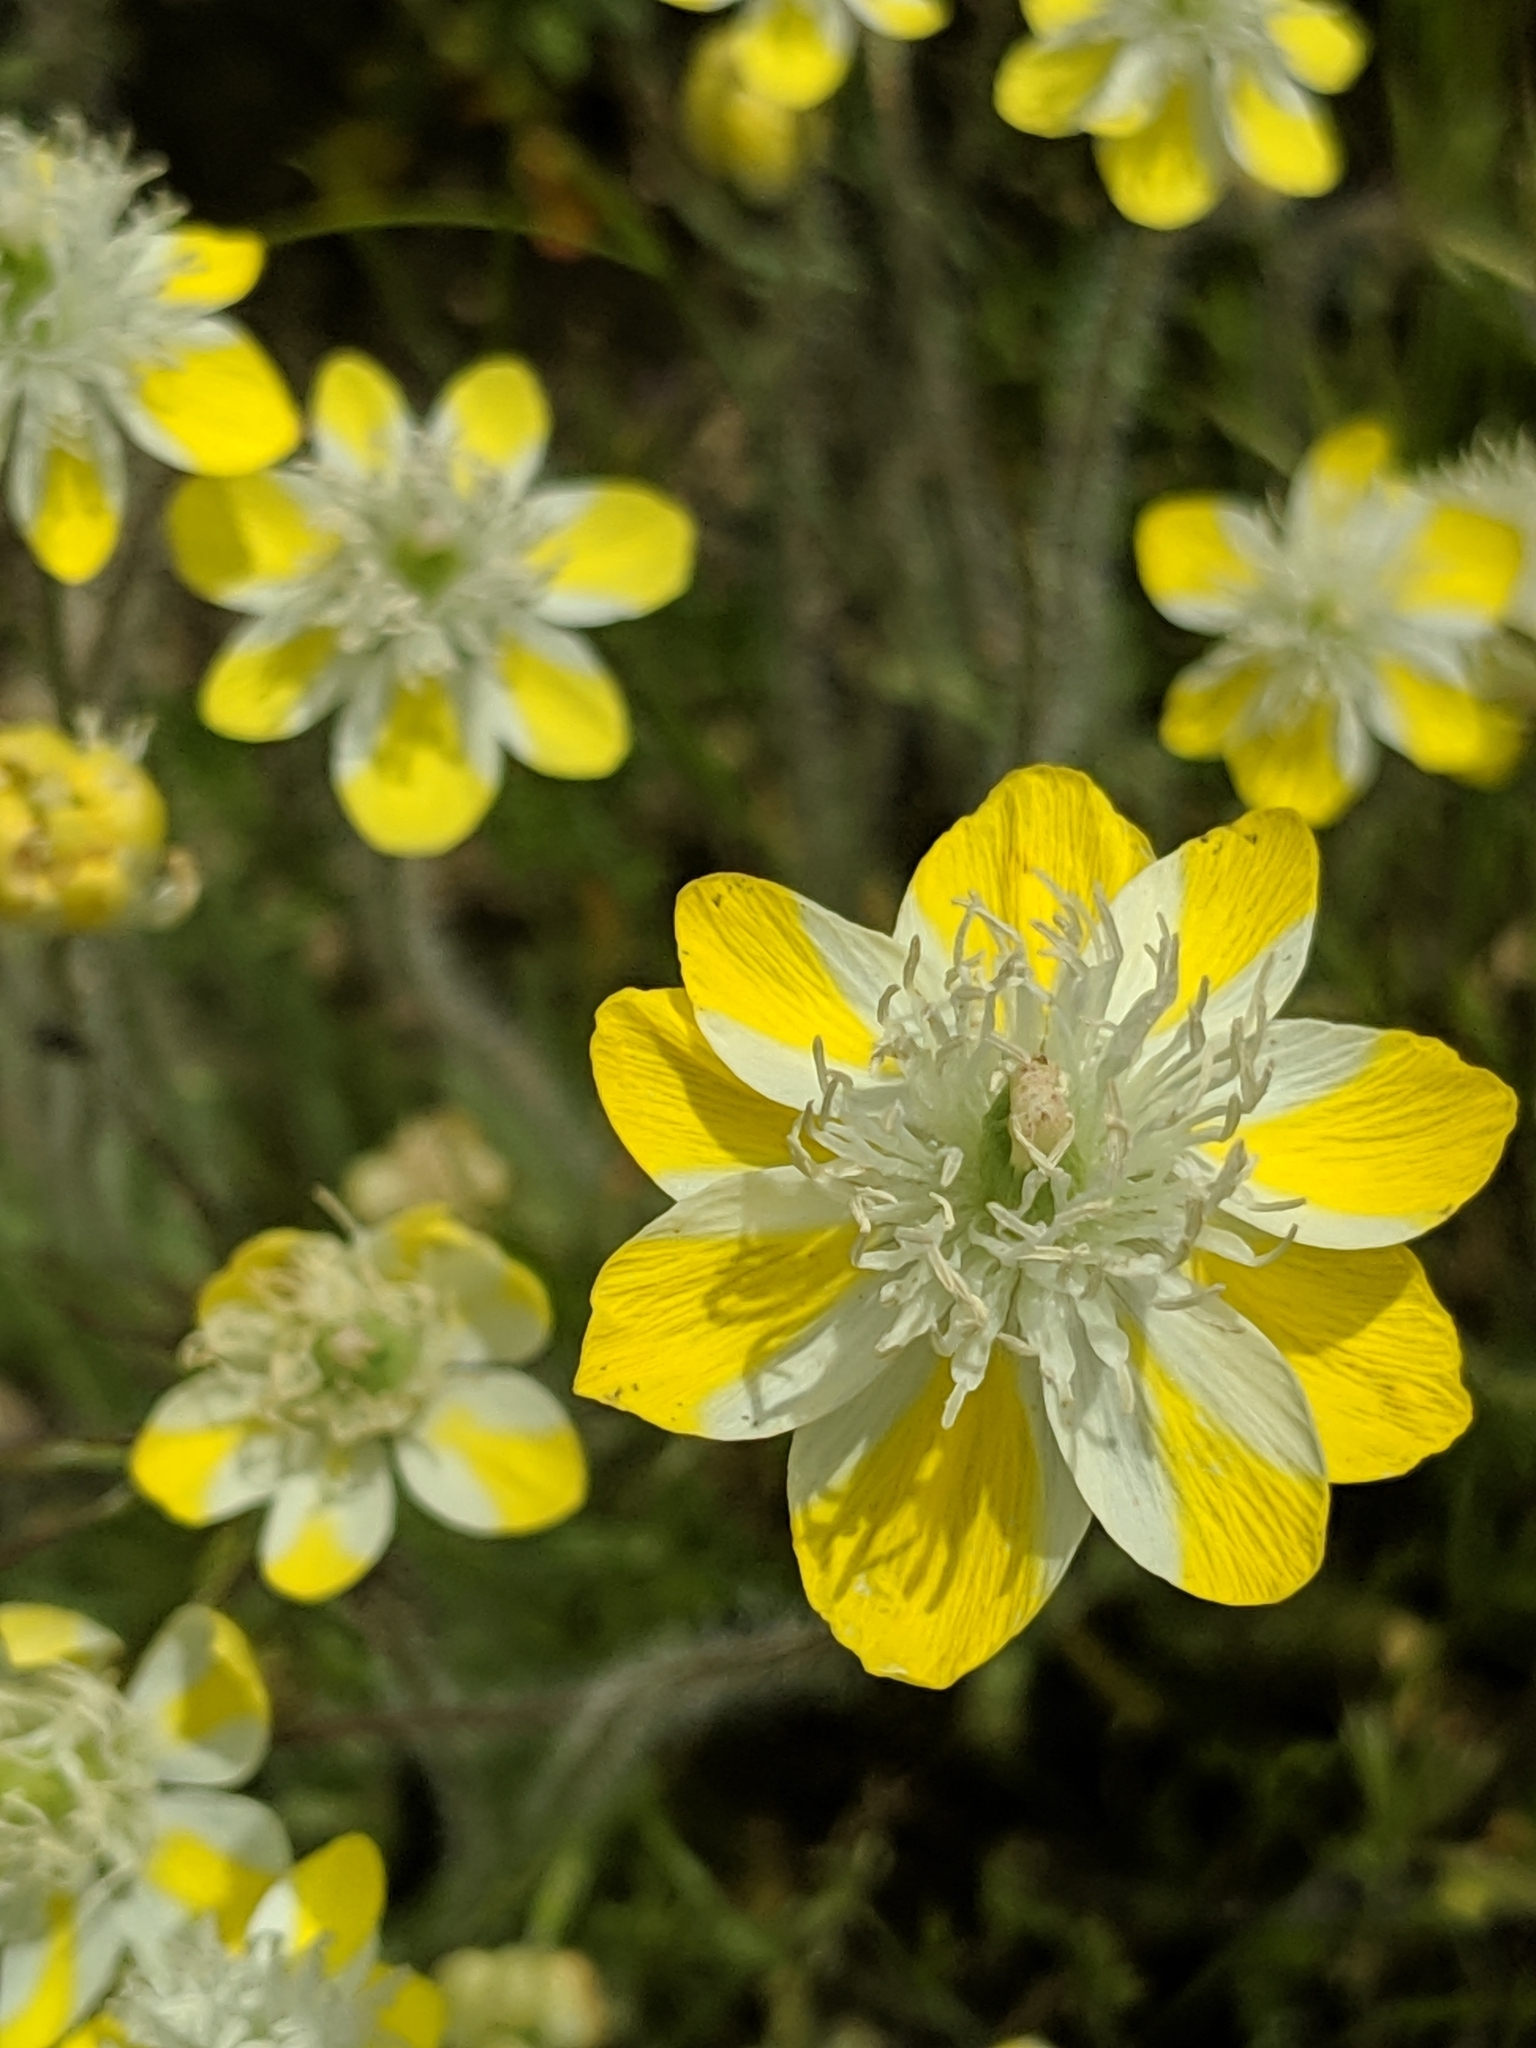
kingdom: Plantae
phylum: Tracheophyta
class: Magnoliopsida
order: Ranunculales
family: Papaveraceae
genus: Platystemon
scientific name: Platystemon californicus
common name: Cream-cups
